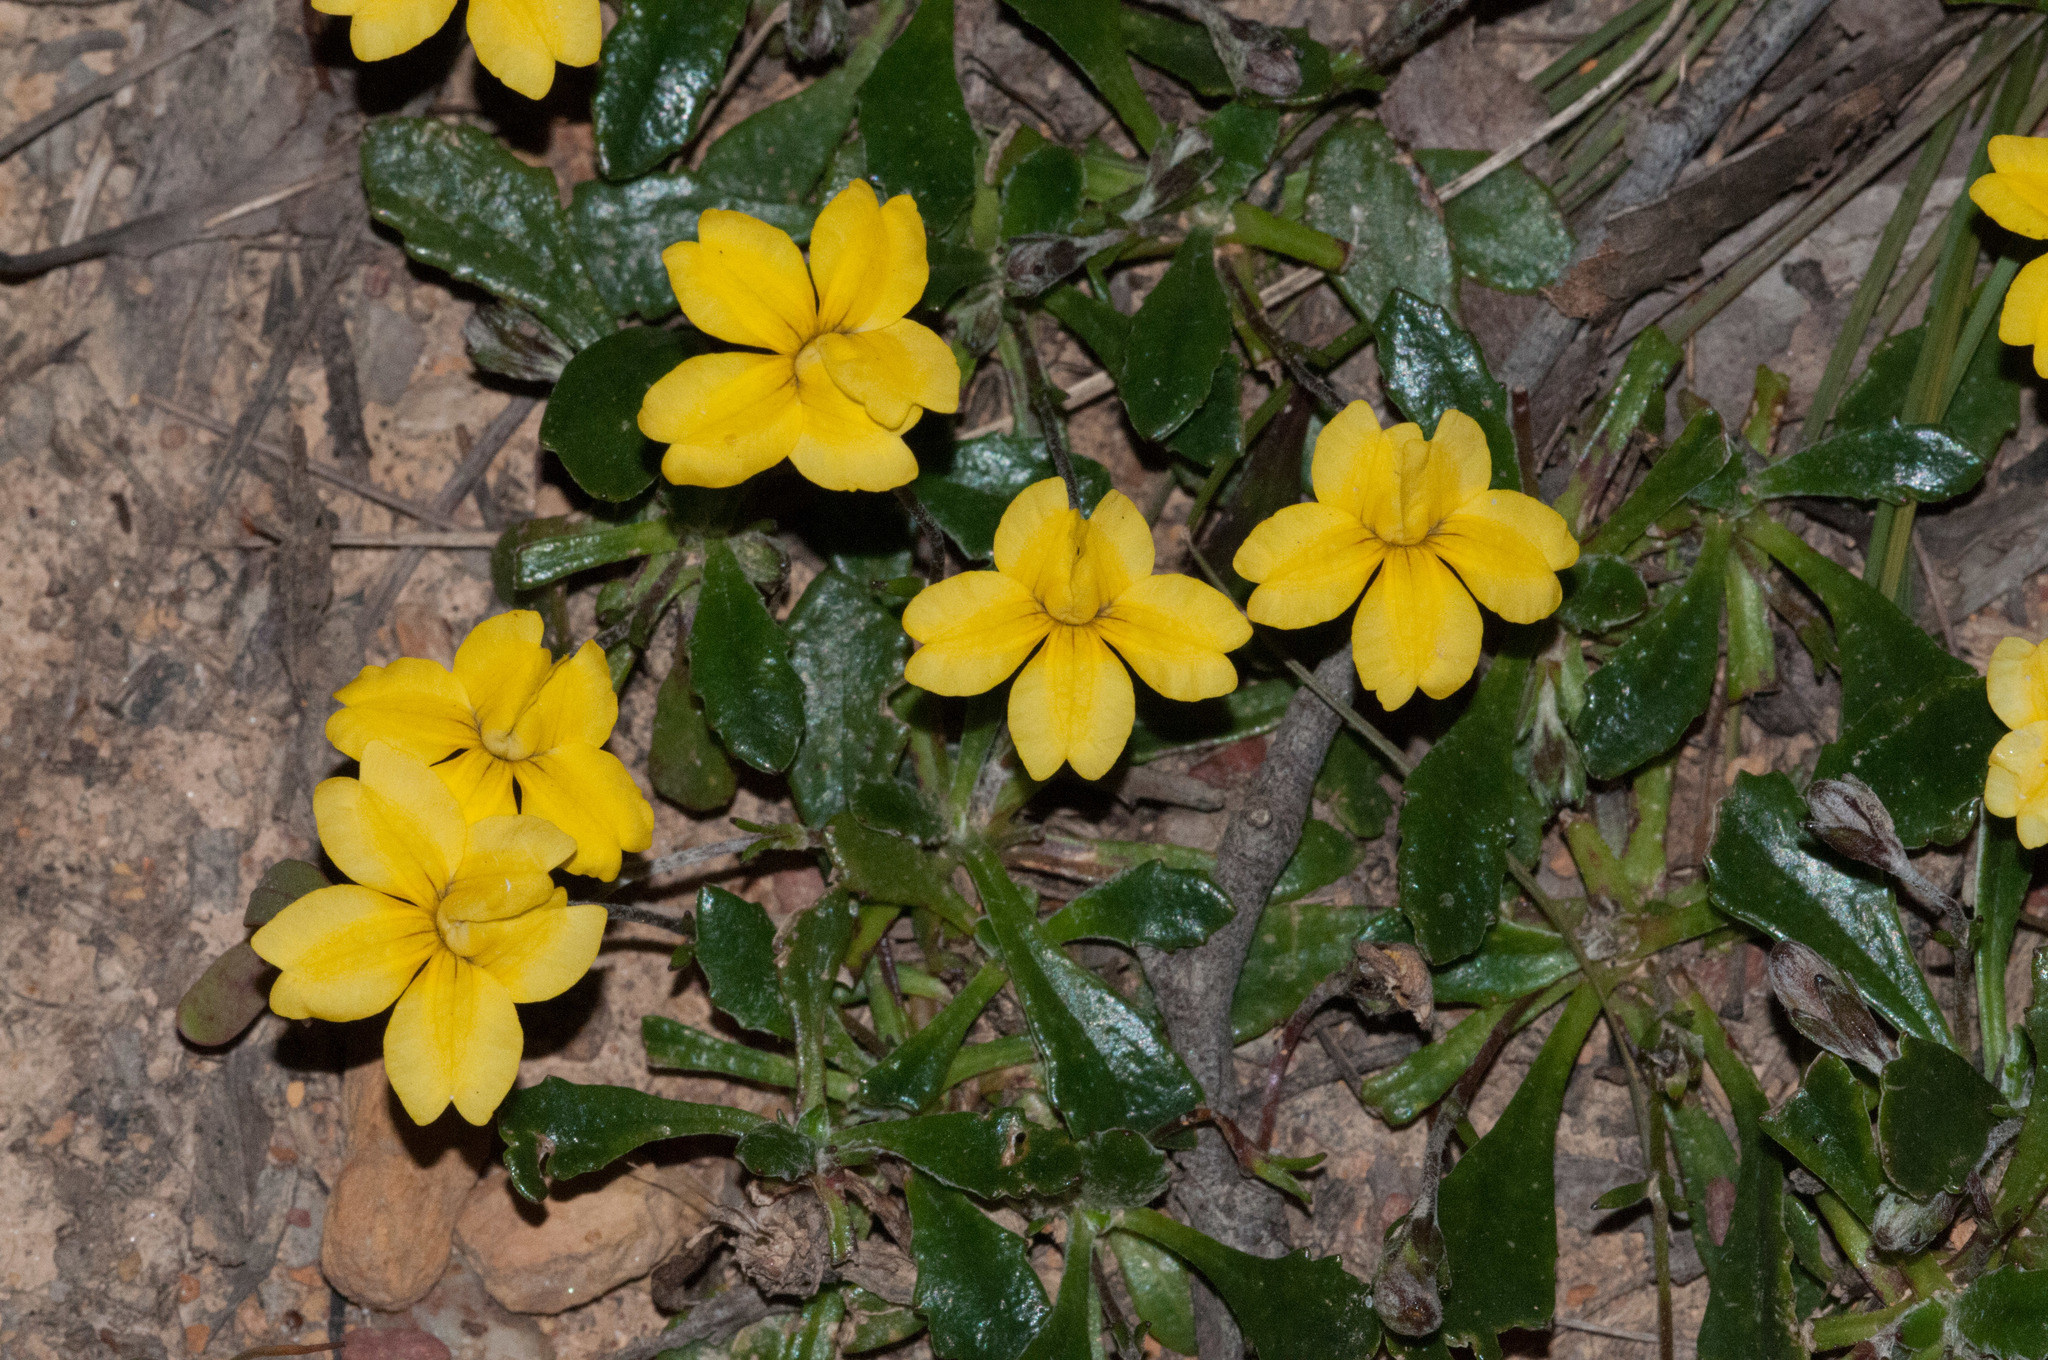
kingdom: Plantae
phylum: Tracheophyta
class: Magnoliopsida
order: Asterales
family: Goodeniaceae
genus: Goodenia
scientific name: Goodenia blackiana
